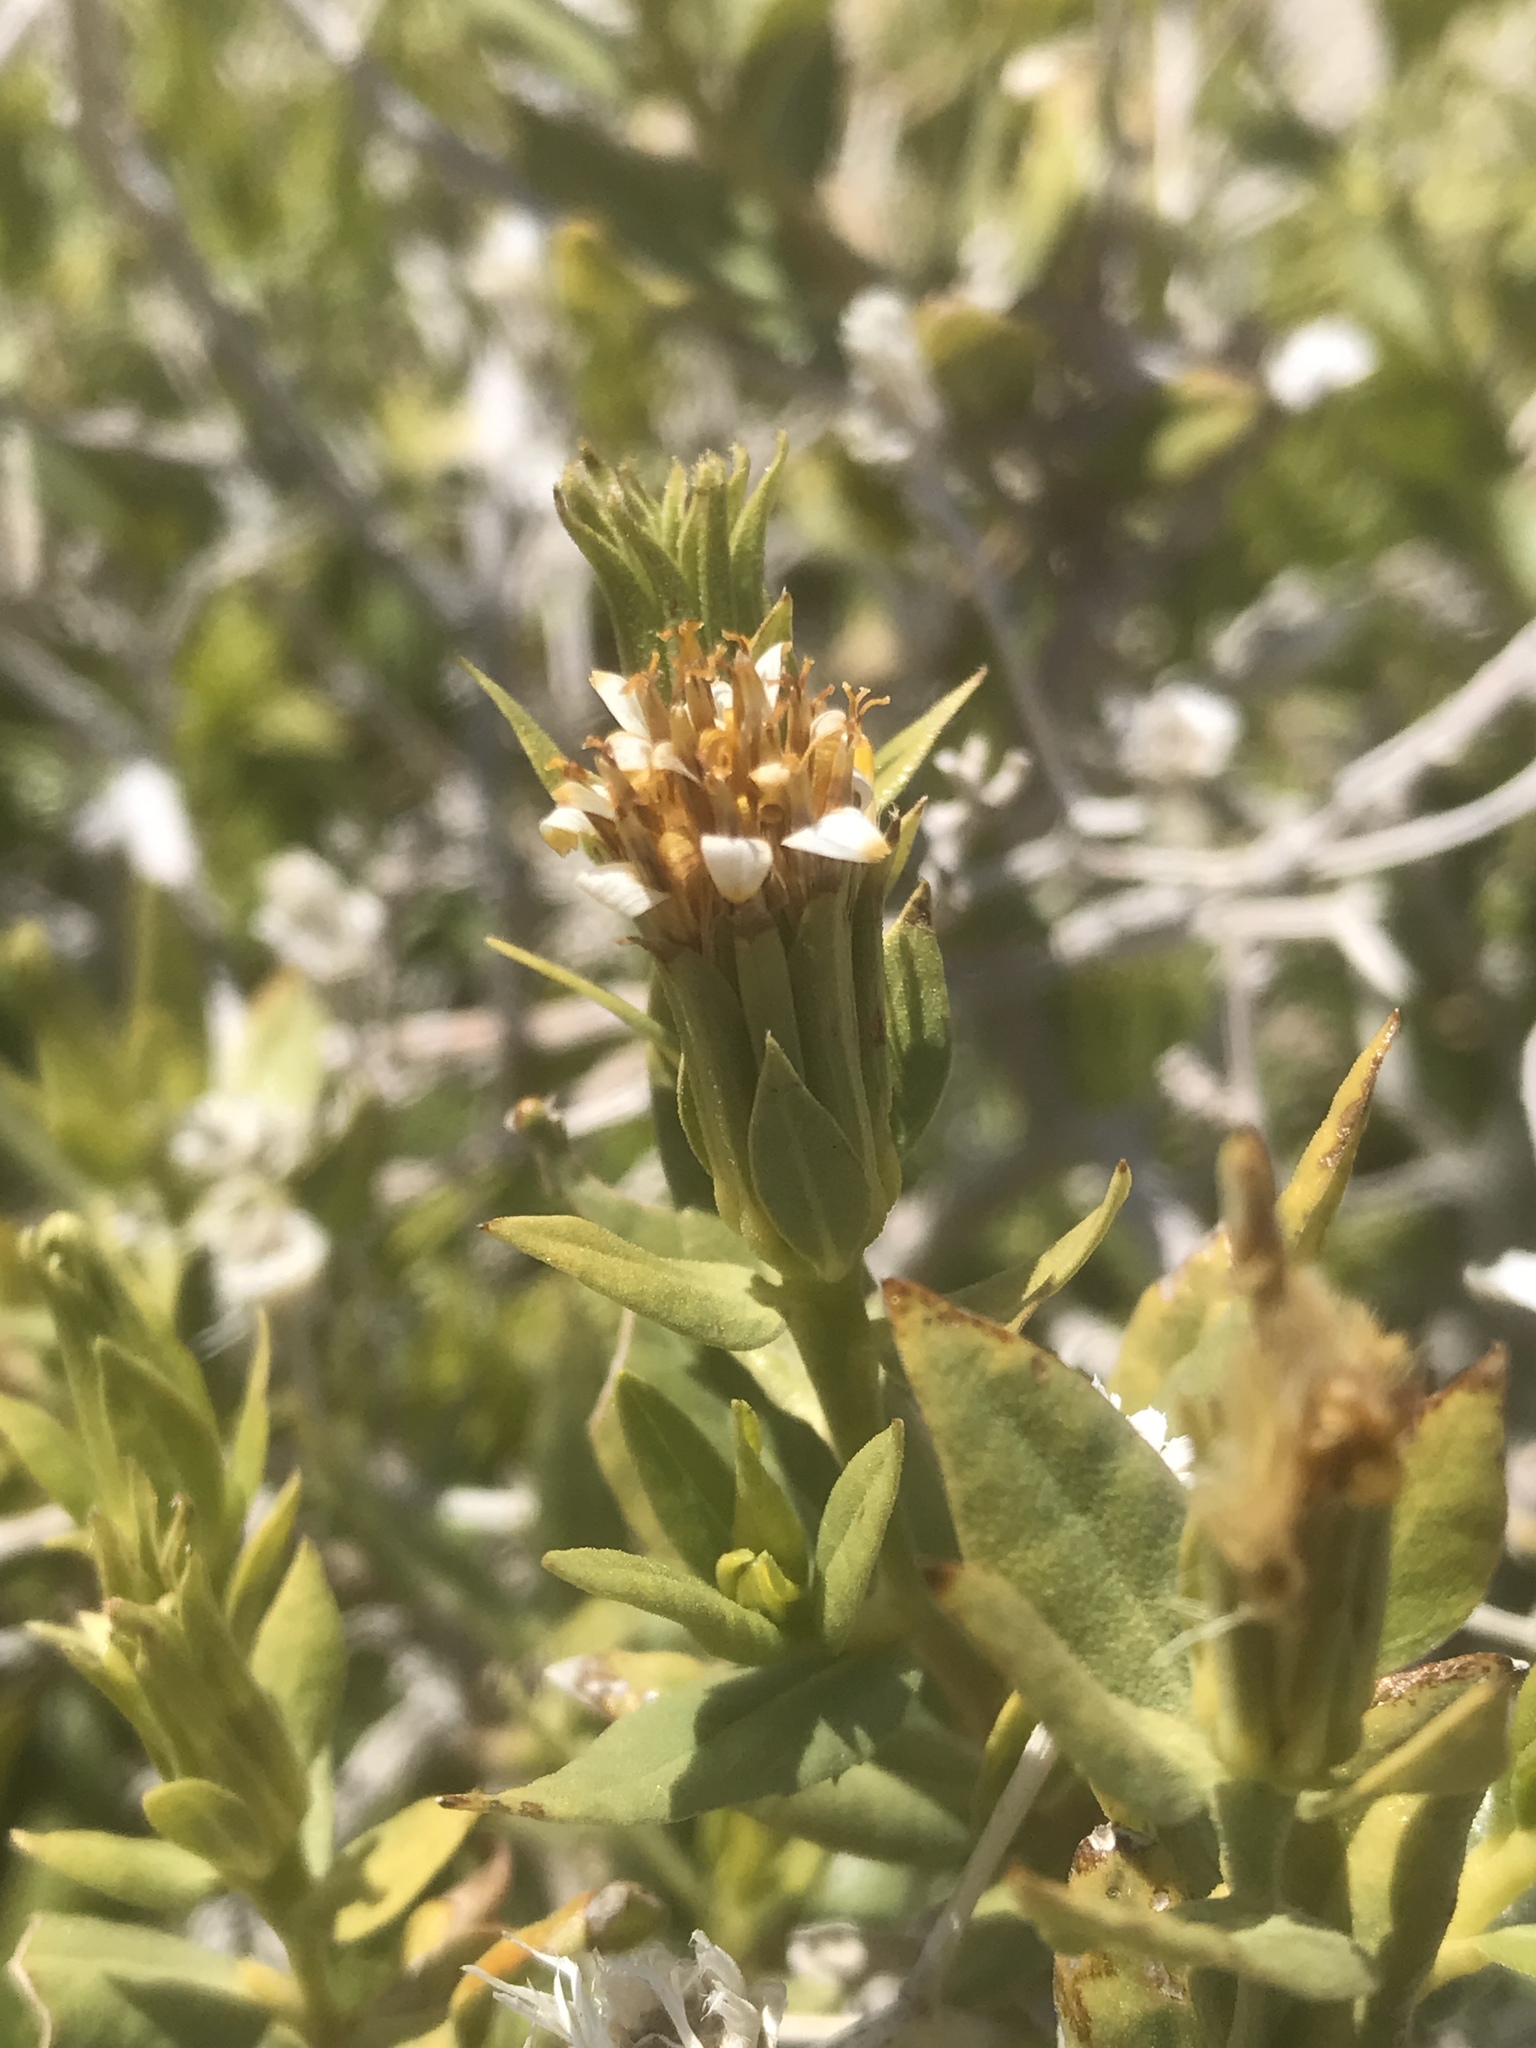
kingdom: Plantae
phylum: Tracheophyta
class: Magnoliopsida
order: Asterales
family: Asteraceae
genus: Trixis
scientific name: Trixis californica
